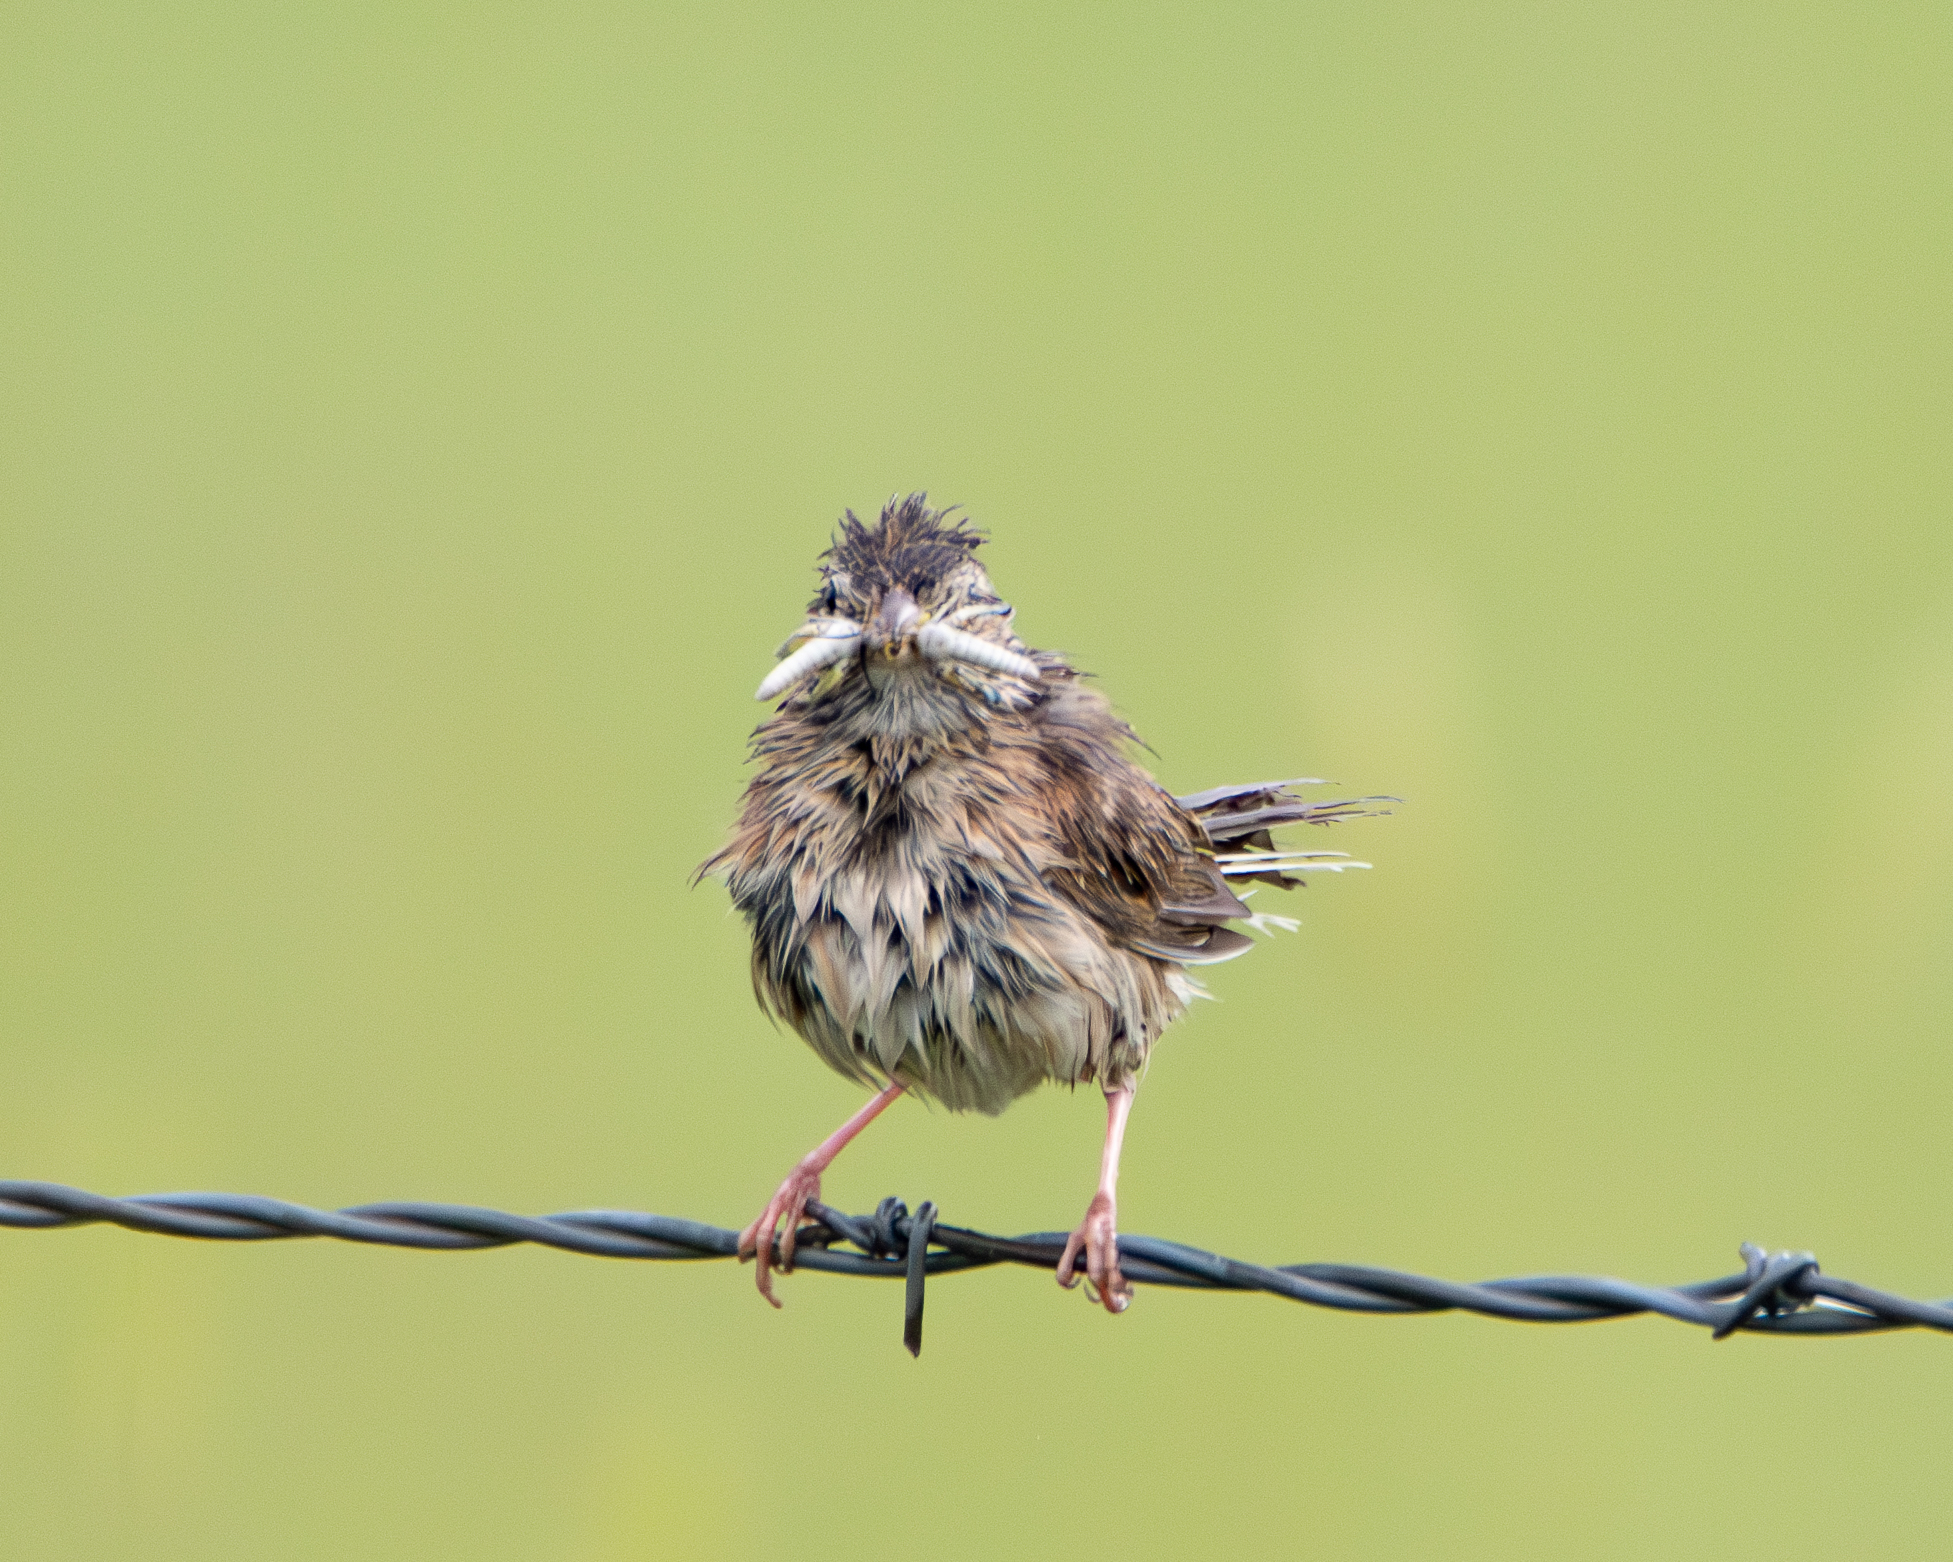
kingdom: Animalia
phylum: Chordata
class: Aves
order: Passeriformes
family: Passerellidae
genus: Pooecetes
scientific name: Pooecetes gramineus
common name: Vesper sparrow
